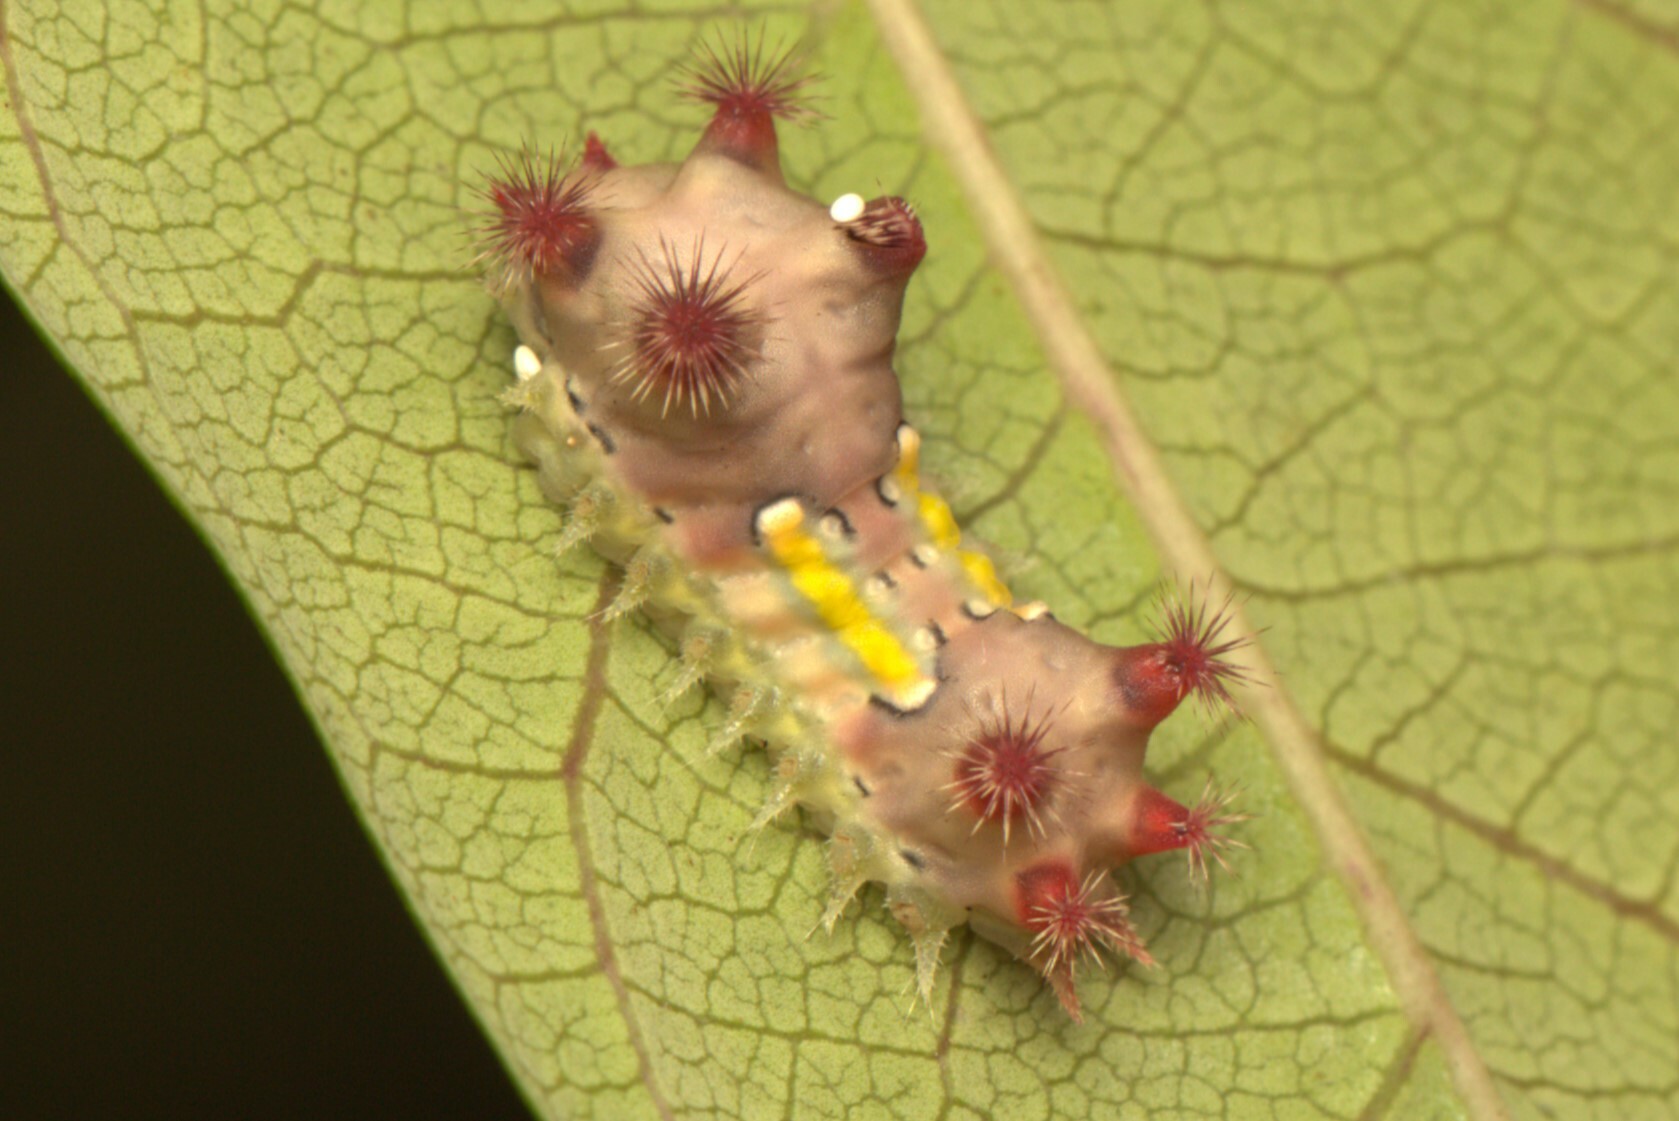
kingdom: Animalia
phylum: Arthropoda
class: Insecta
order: Lepidoptera
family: Limacodidae
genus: Doratifera
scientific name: Doratifera vulnerans
